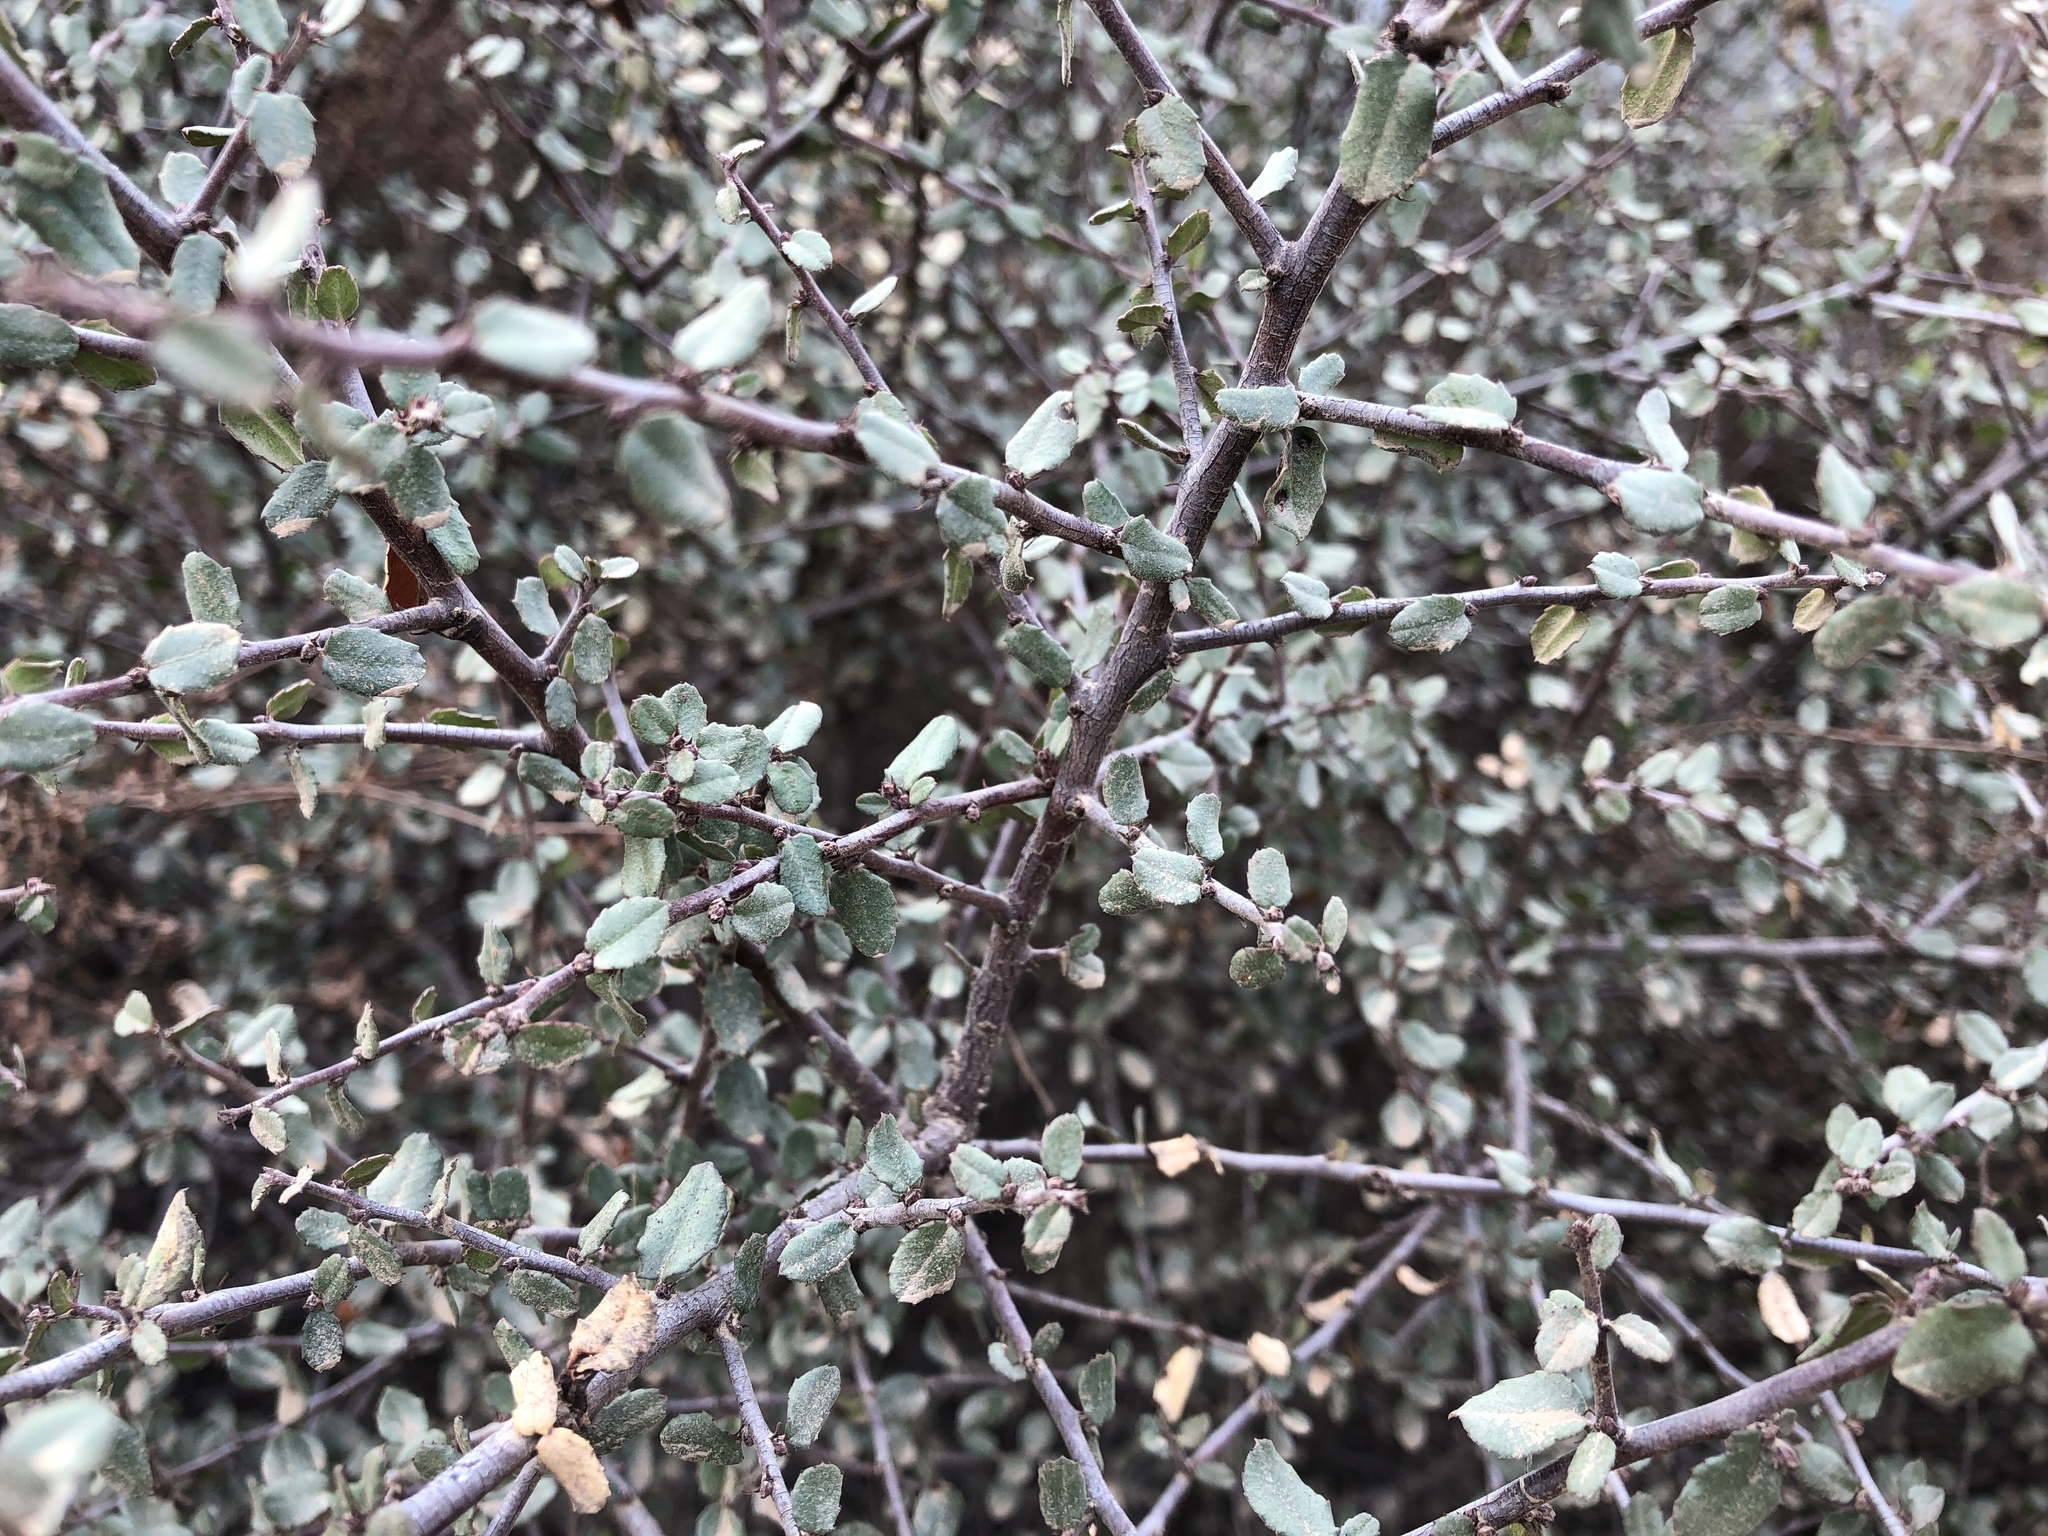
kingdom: Plantae
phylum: Tracheophyta
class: Magnoliopsida
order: Rosales
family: Rhamnaceae
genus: Endotropis
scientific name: Endotropis crocea
